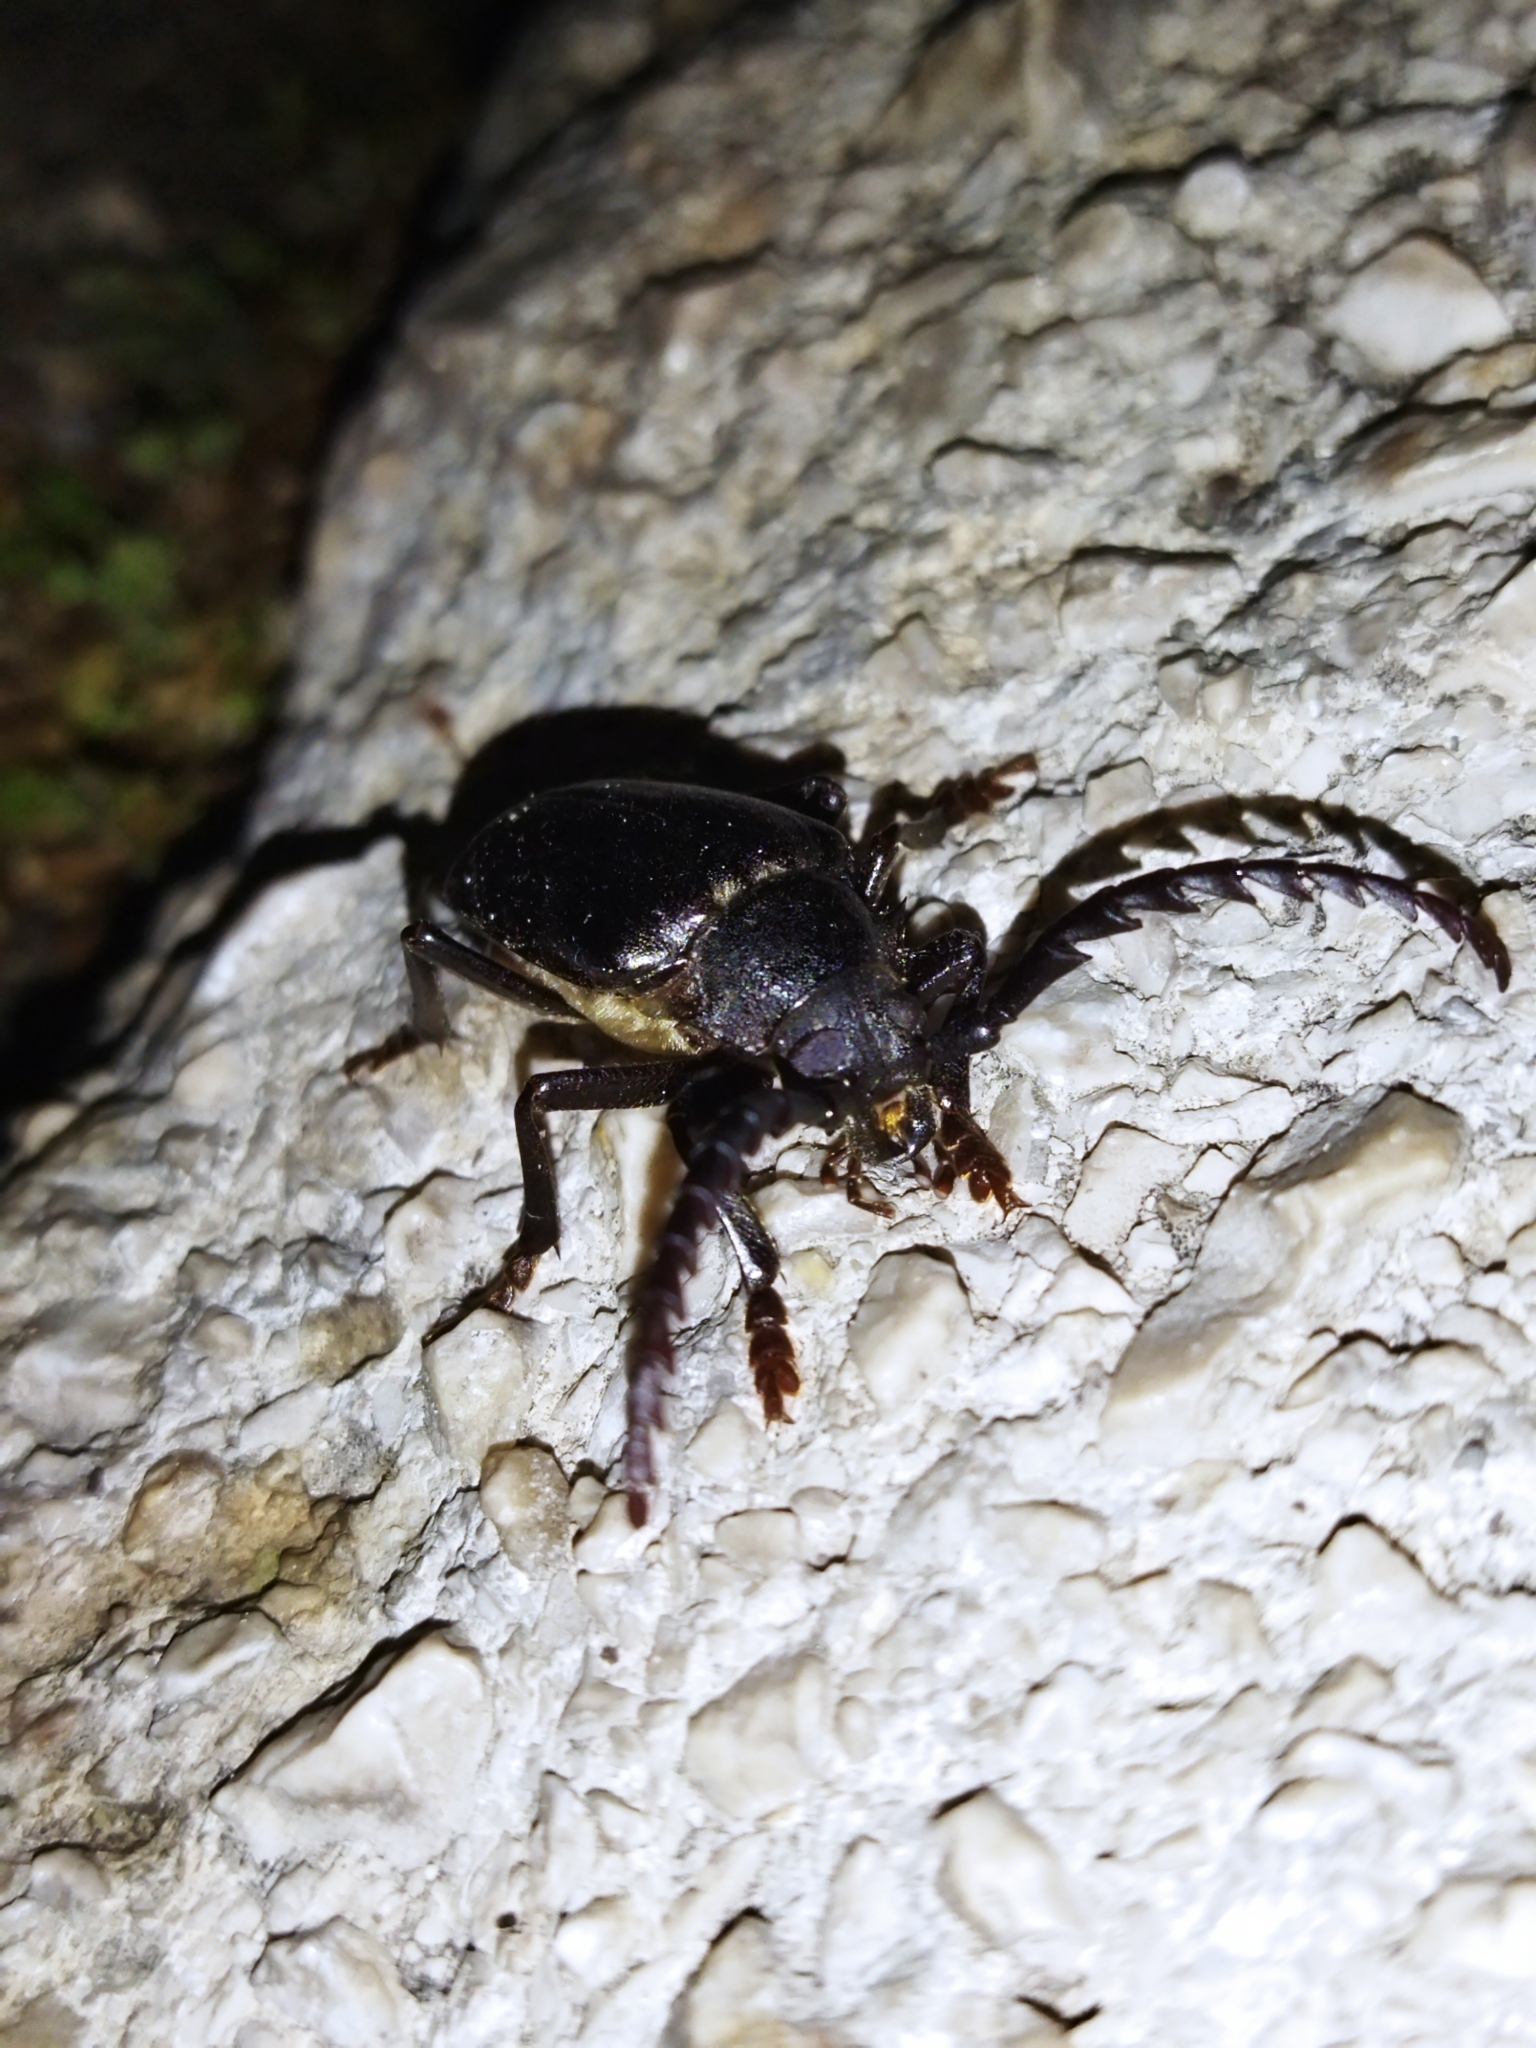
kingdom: Animalia
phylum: Arthropoda
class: Insecta
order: Coleoptera
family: Cerambycidae
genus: Mesoprionus
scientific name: Mesoprionus besikanus
